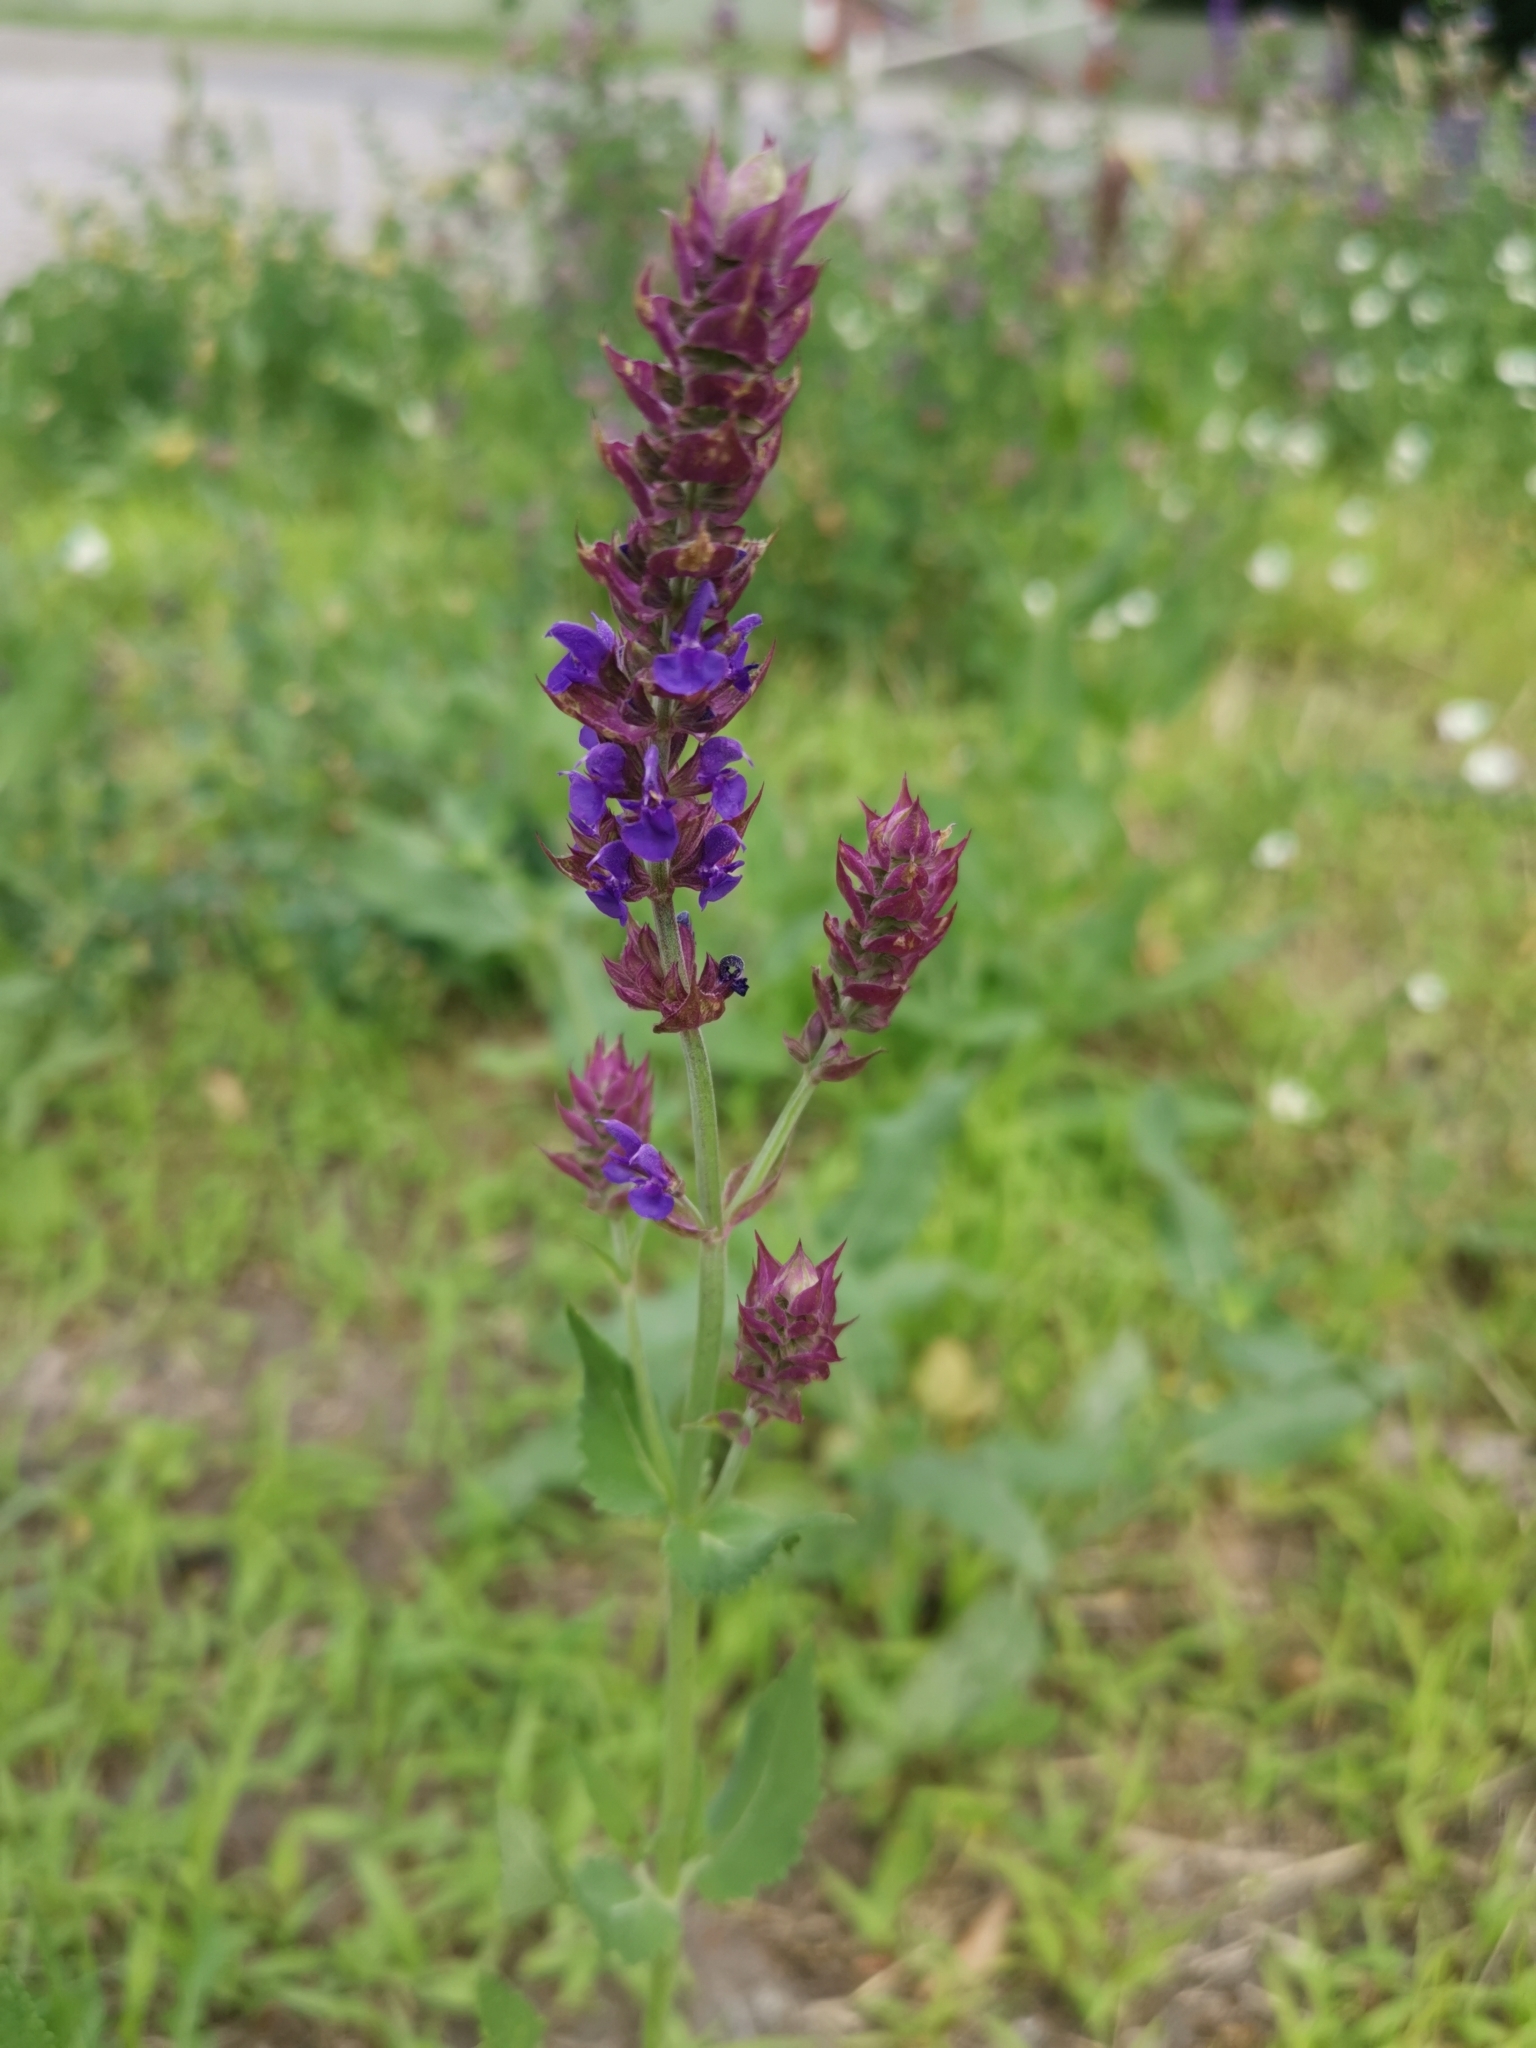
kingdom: Plantae
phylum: Tracheophyta
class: Magnoliopsida
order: Lamiales
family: Lamiaceae
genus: Salvia
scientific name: Salvia nemorosa
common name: Balkan clary
